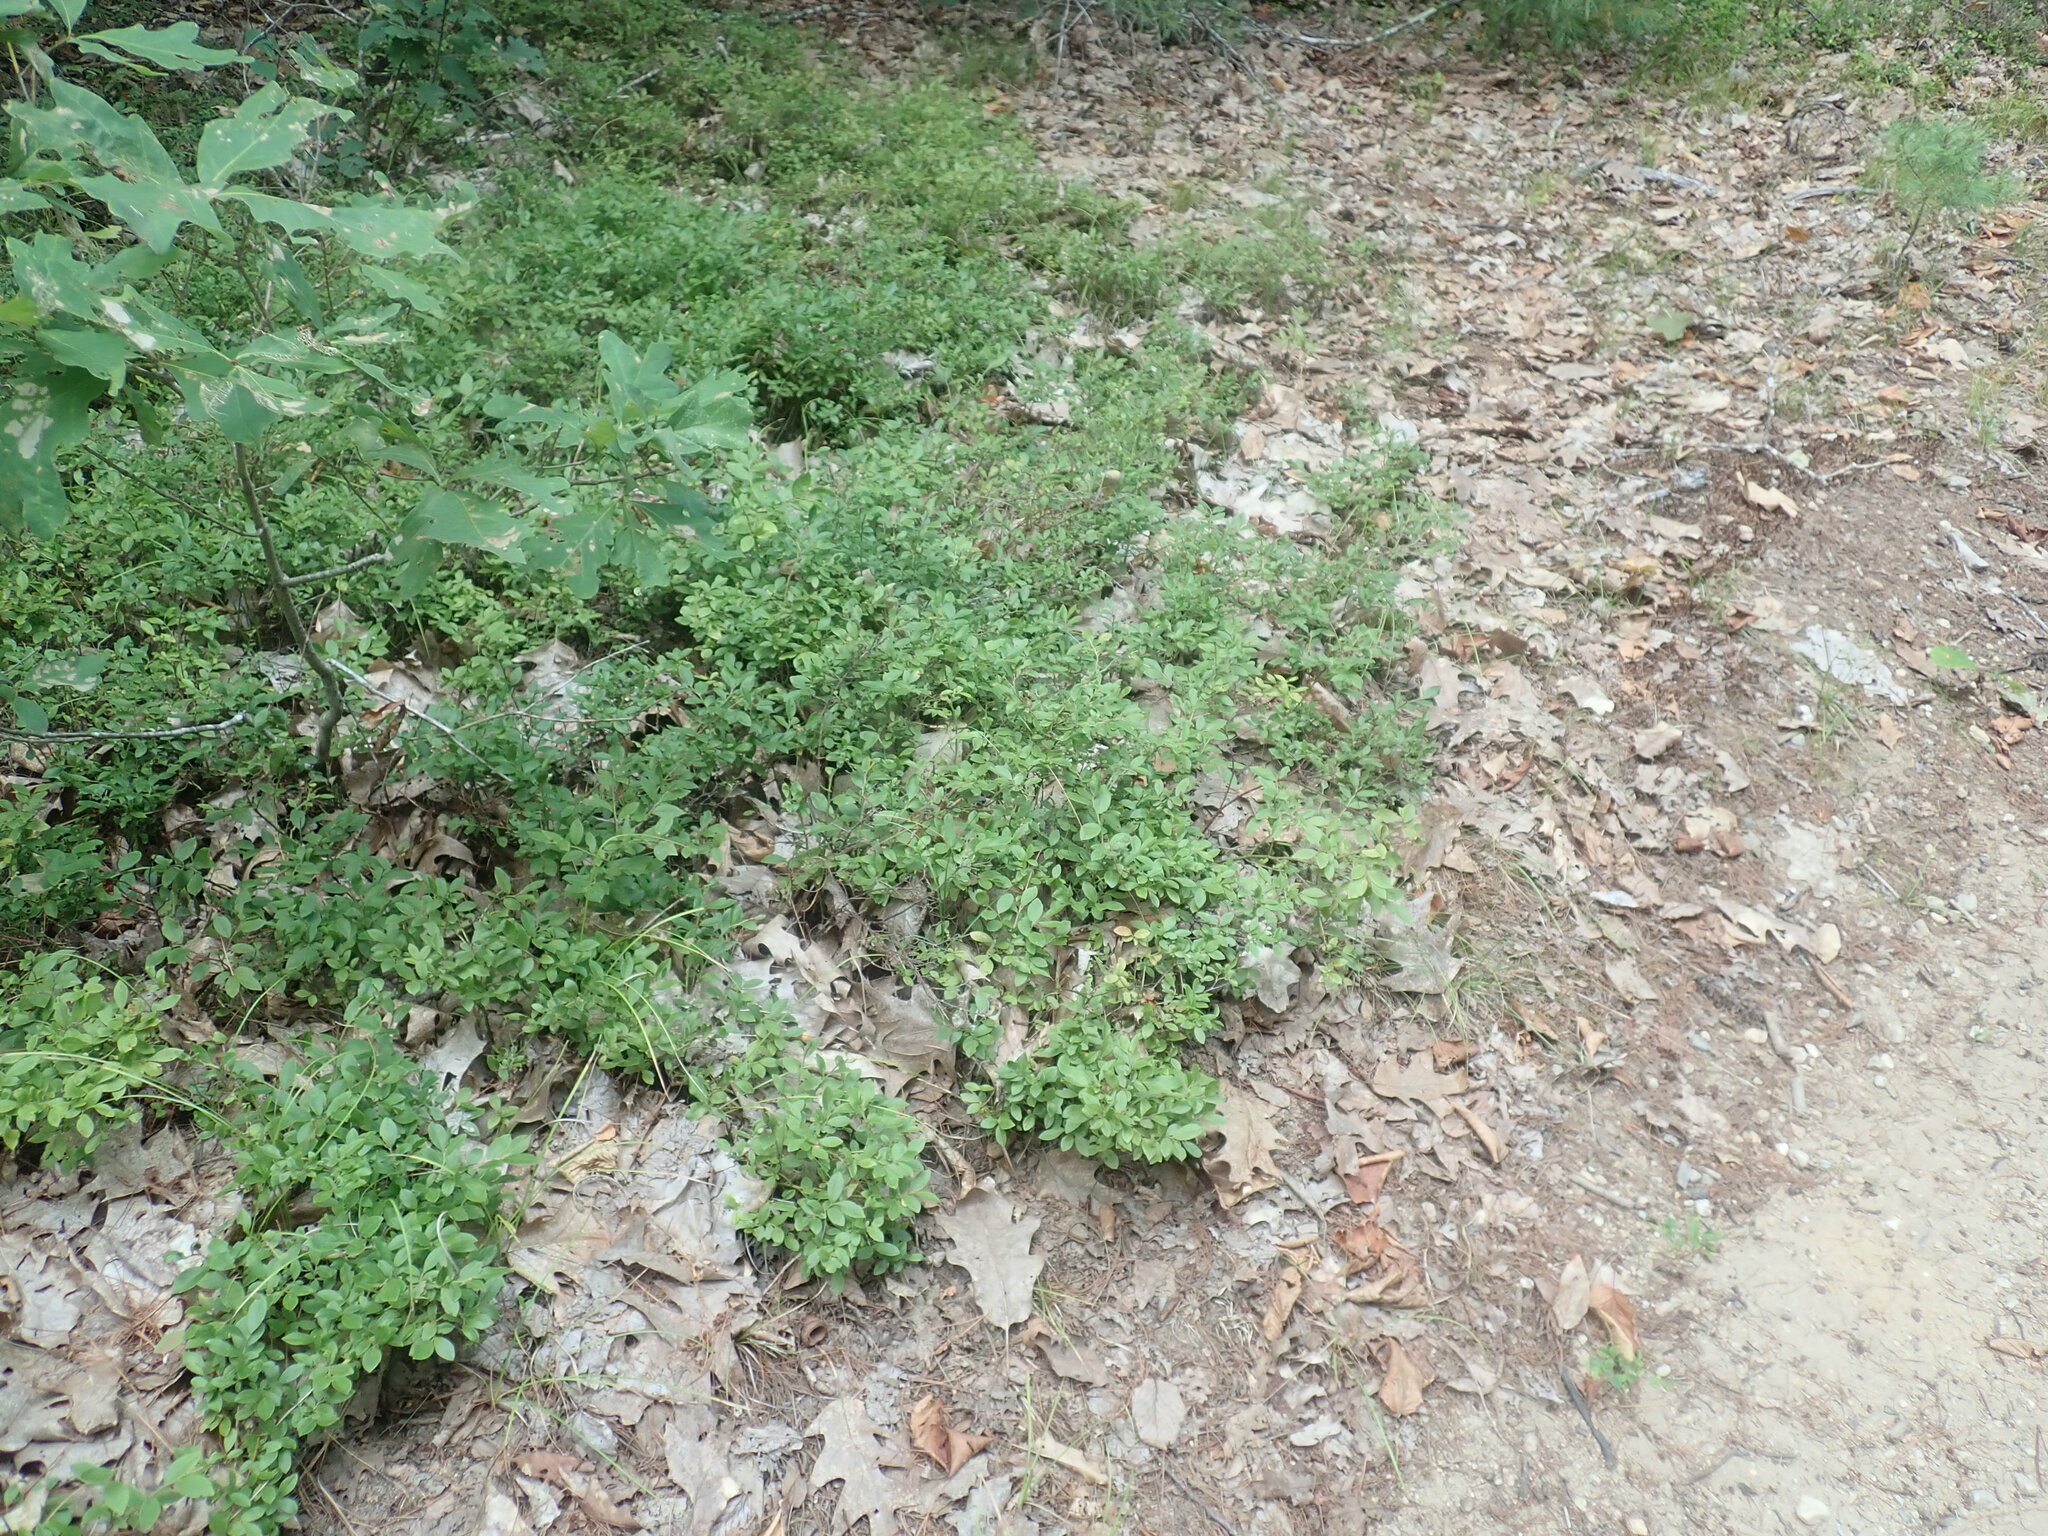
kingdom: Plantae
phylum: Tracheophyta
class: Magnoliopsida
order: Ericales
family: Ericaceae
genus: Vaccinium
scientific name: Vaccinium angustifolium
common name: Early lowbush blueberry
